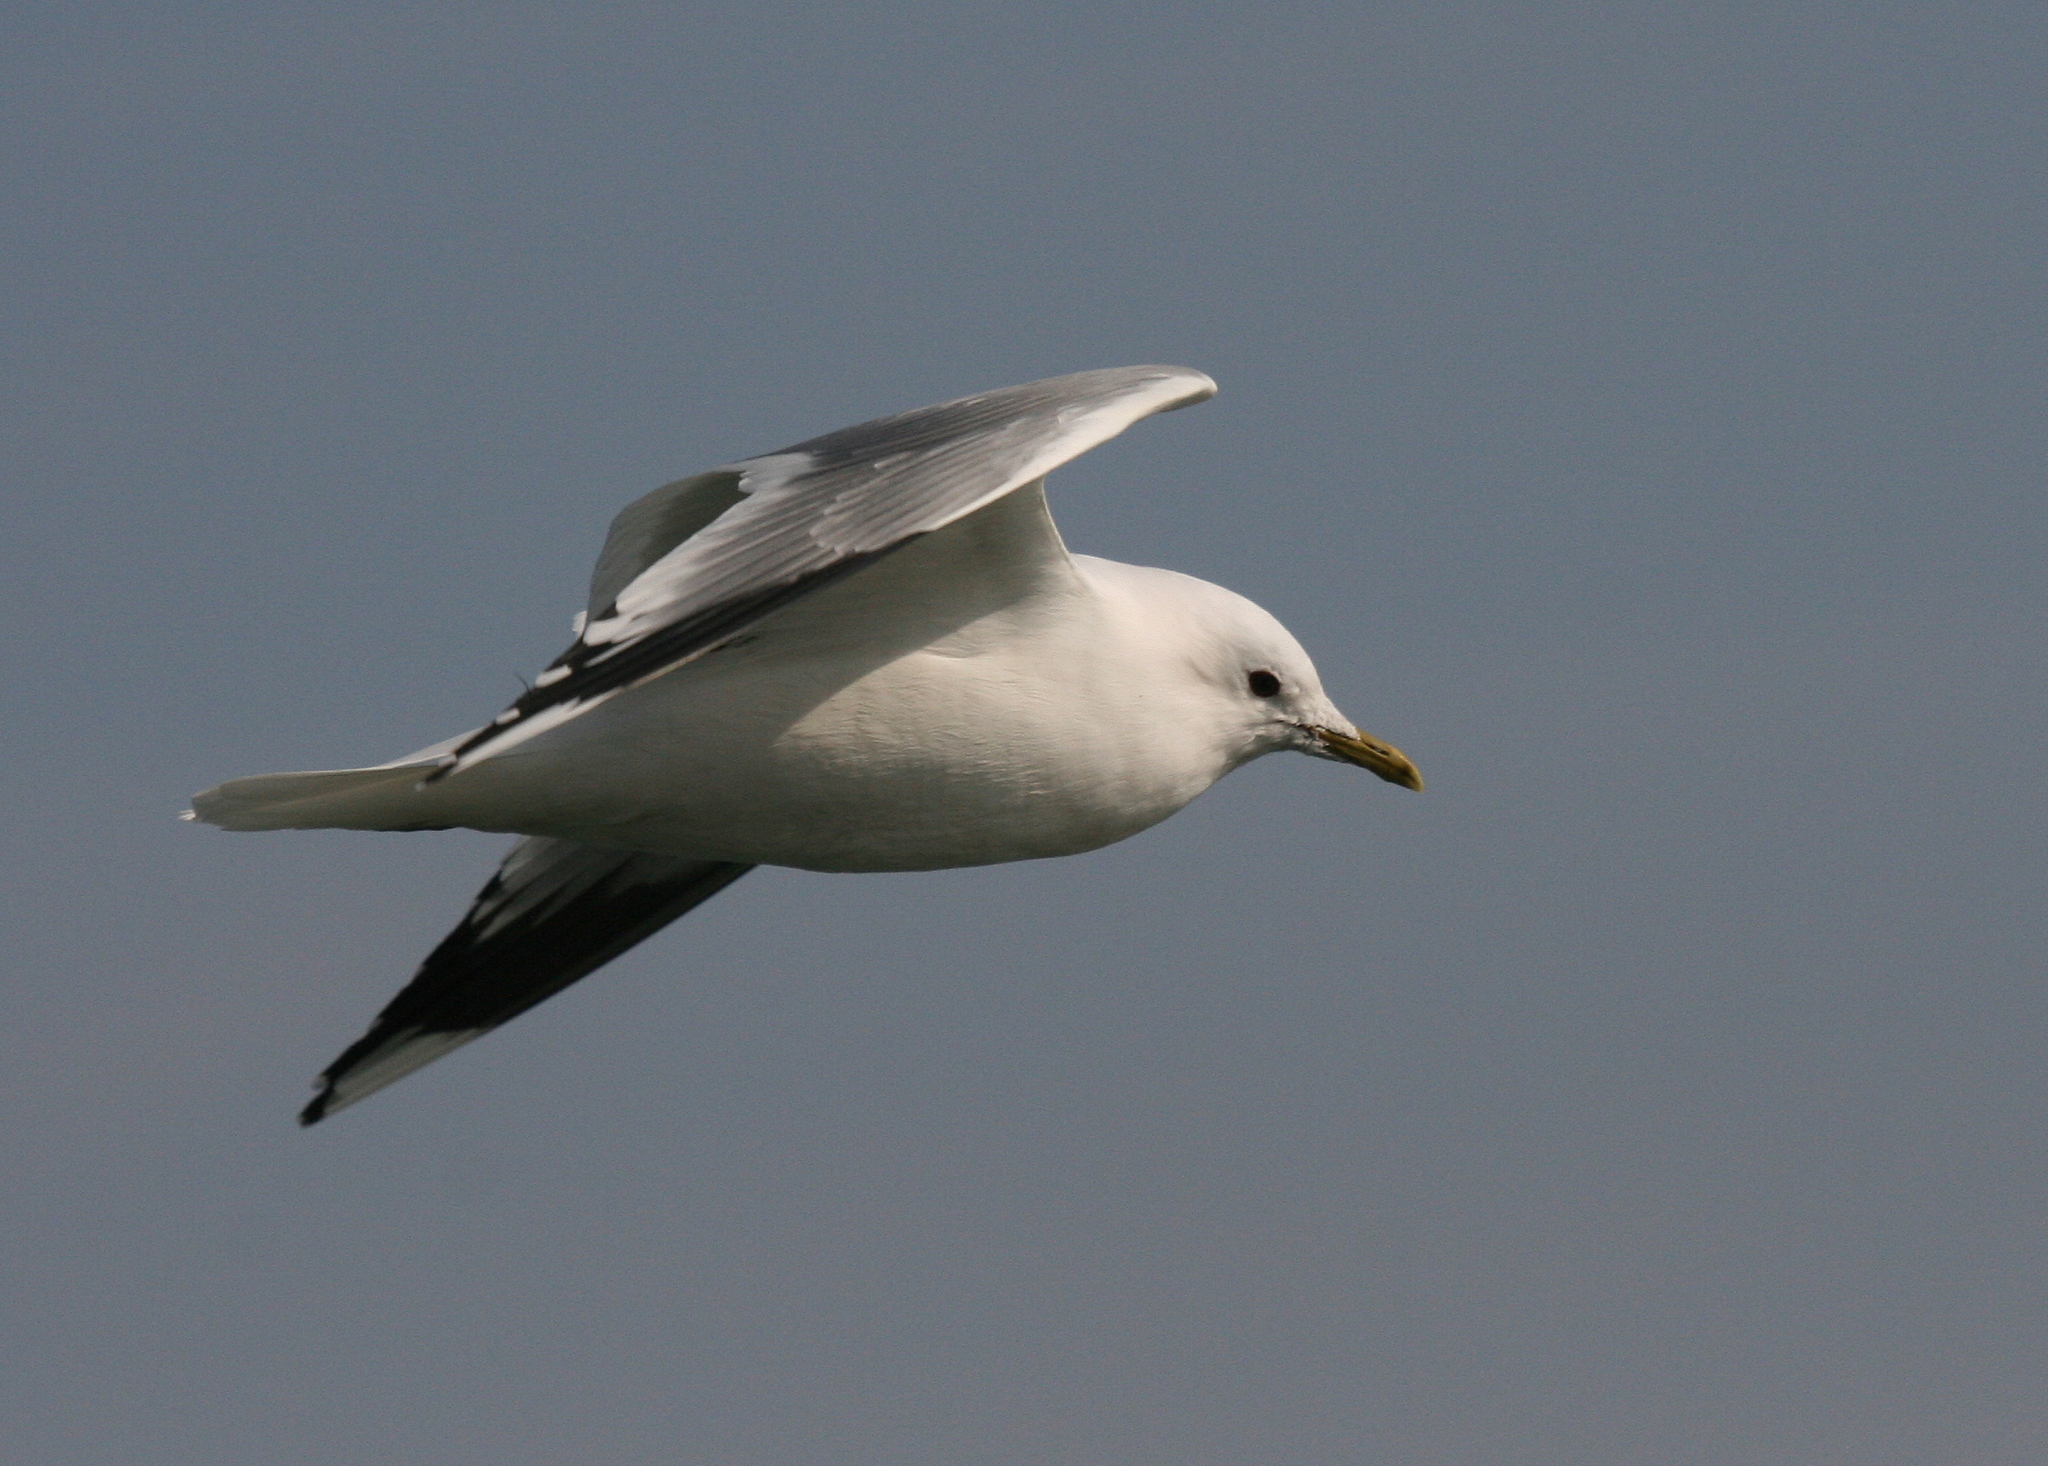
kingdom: Animalia
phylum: Chordata
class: Aves
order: Charadriiformes
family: Laridae
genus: Larus
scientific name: Larus canus
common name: Mew gull
